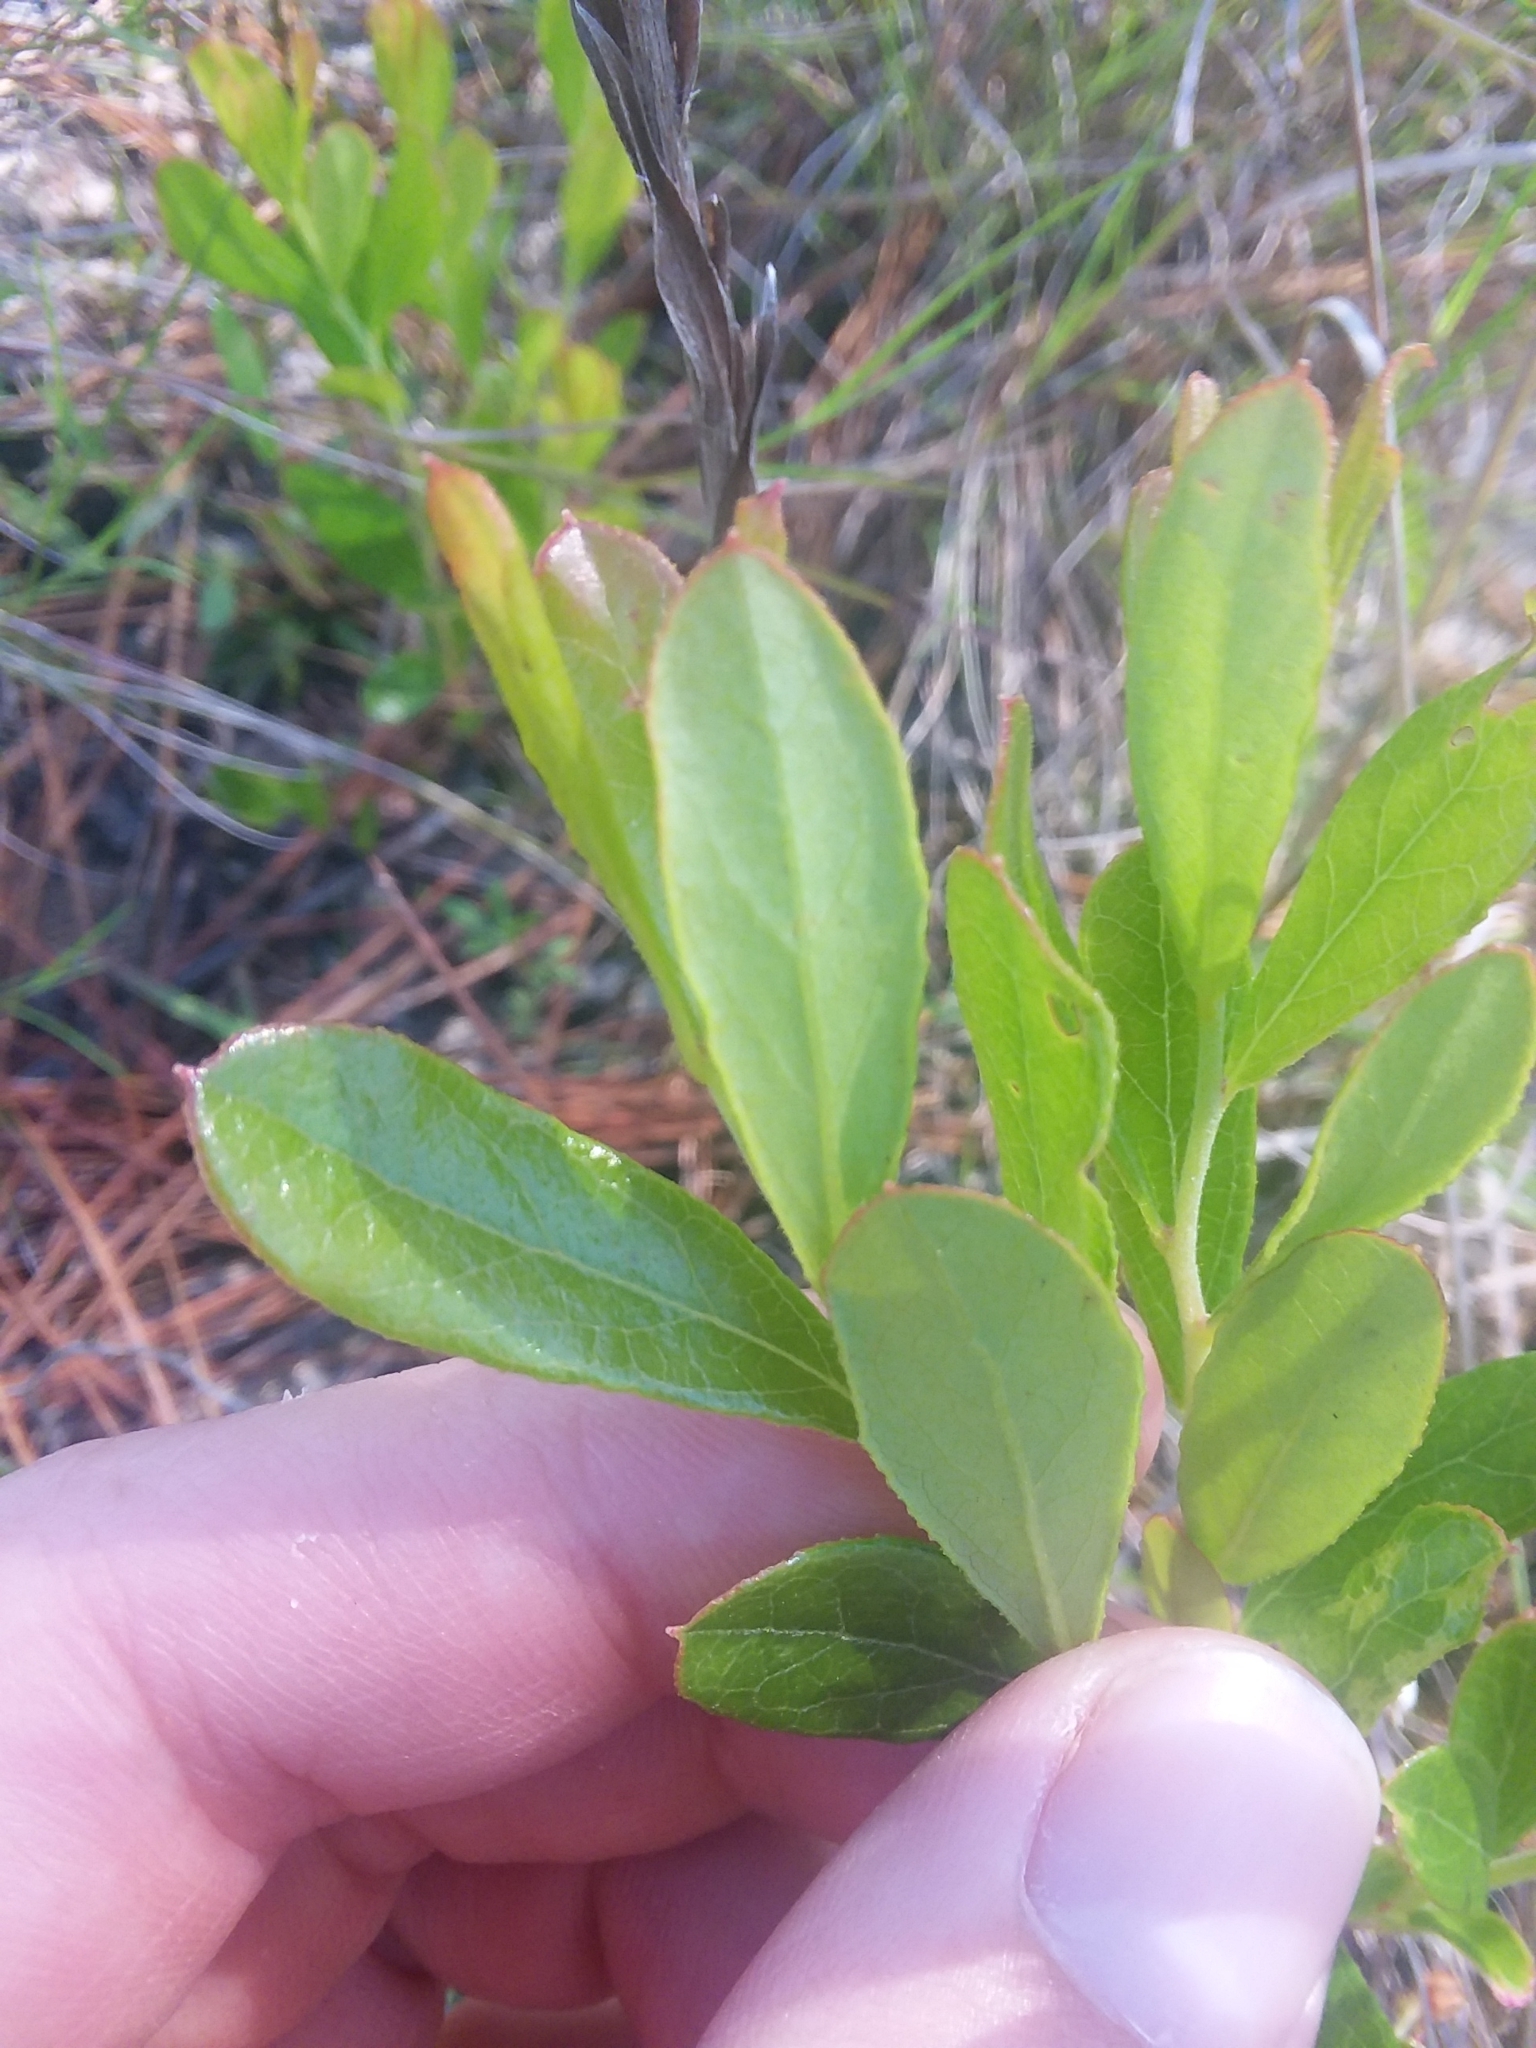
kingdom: Plantae
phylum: Tracheophyta
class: Magnoliopsida
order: Ericales
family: Ericaceae
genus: Gaylussacia
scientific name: Gaylussacia dumosa
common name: Dwarf huckleberry
